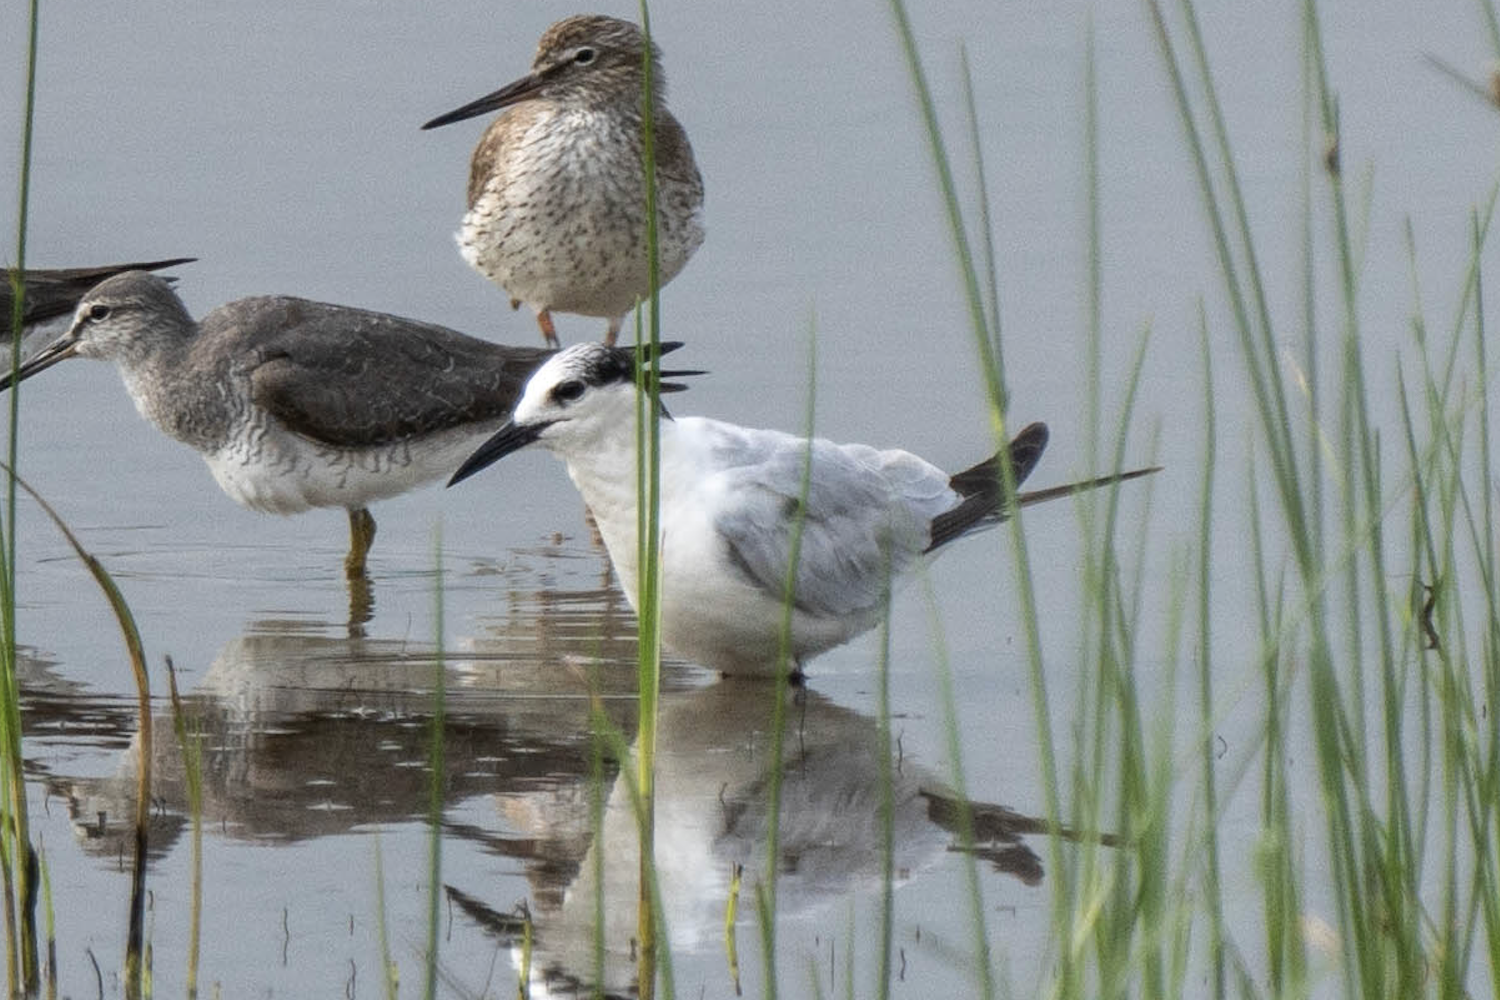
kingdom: Animalia
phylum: Chordata
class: Aves
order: Charadriiformes
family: Laridae
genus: Gelochelidon
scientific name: Gelochelidon nilotica
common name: Gull-billed tern
